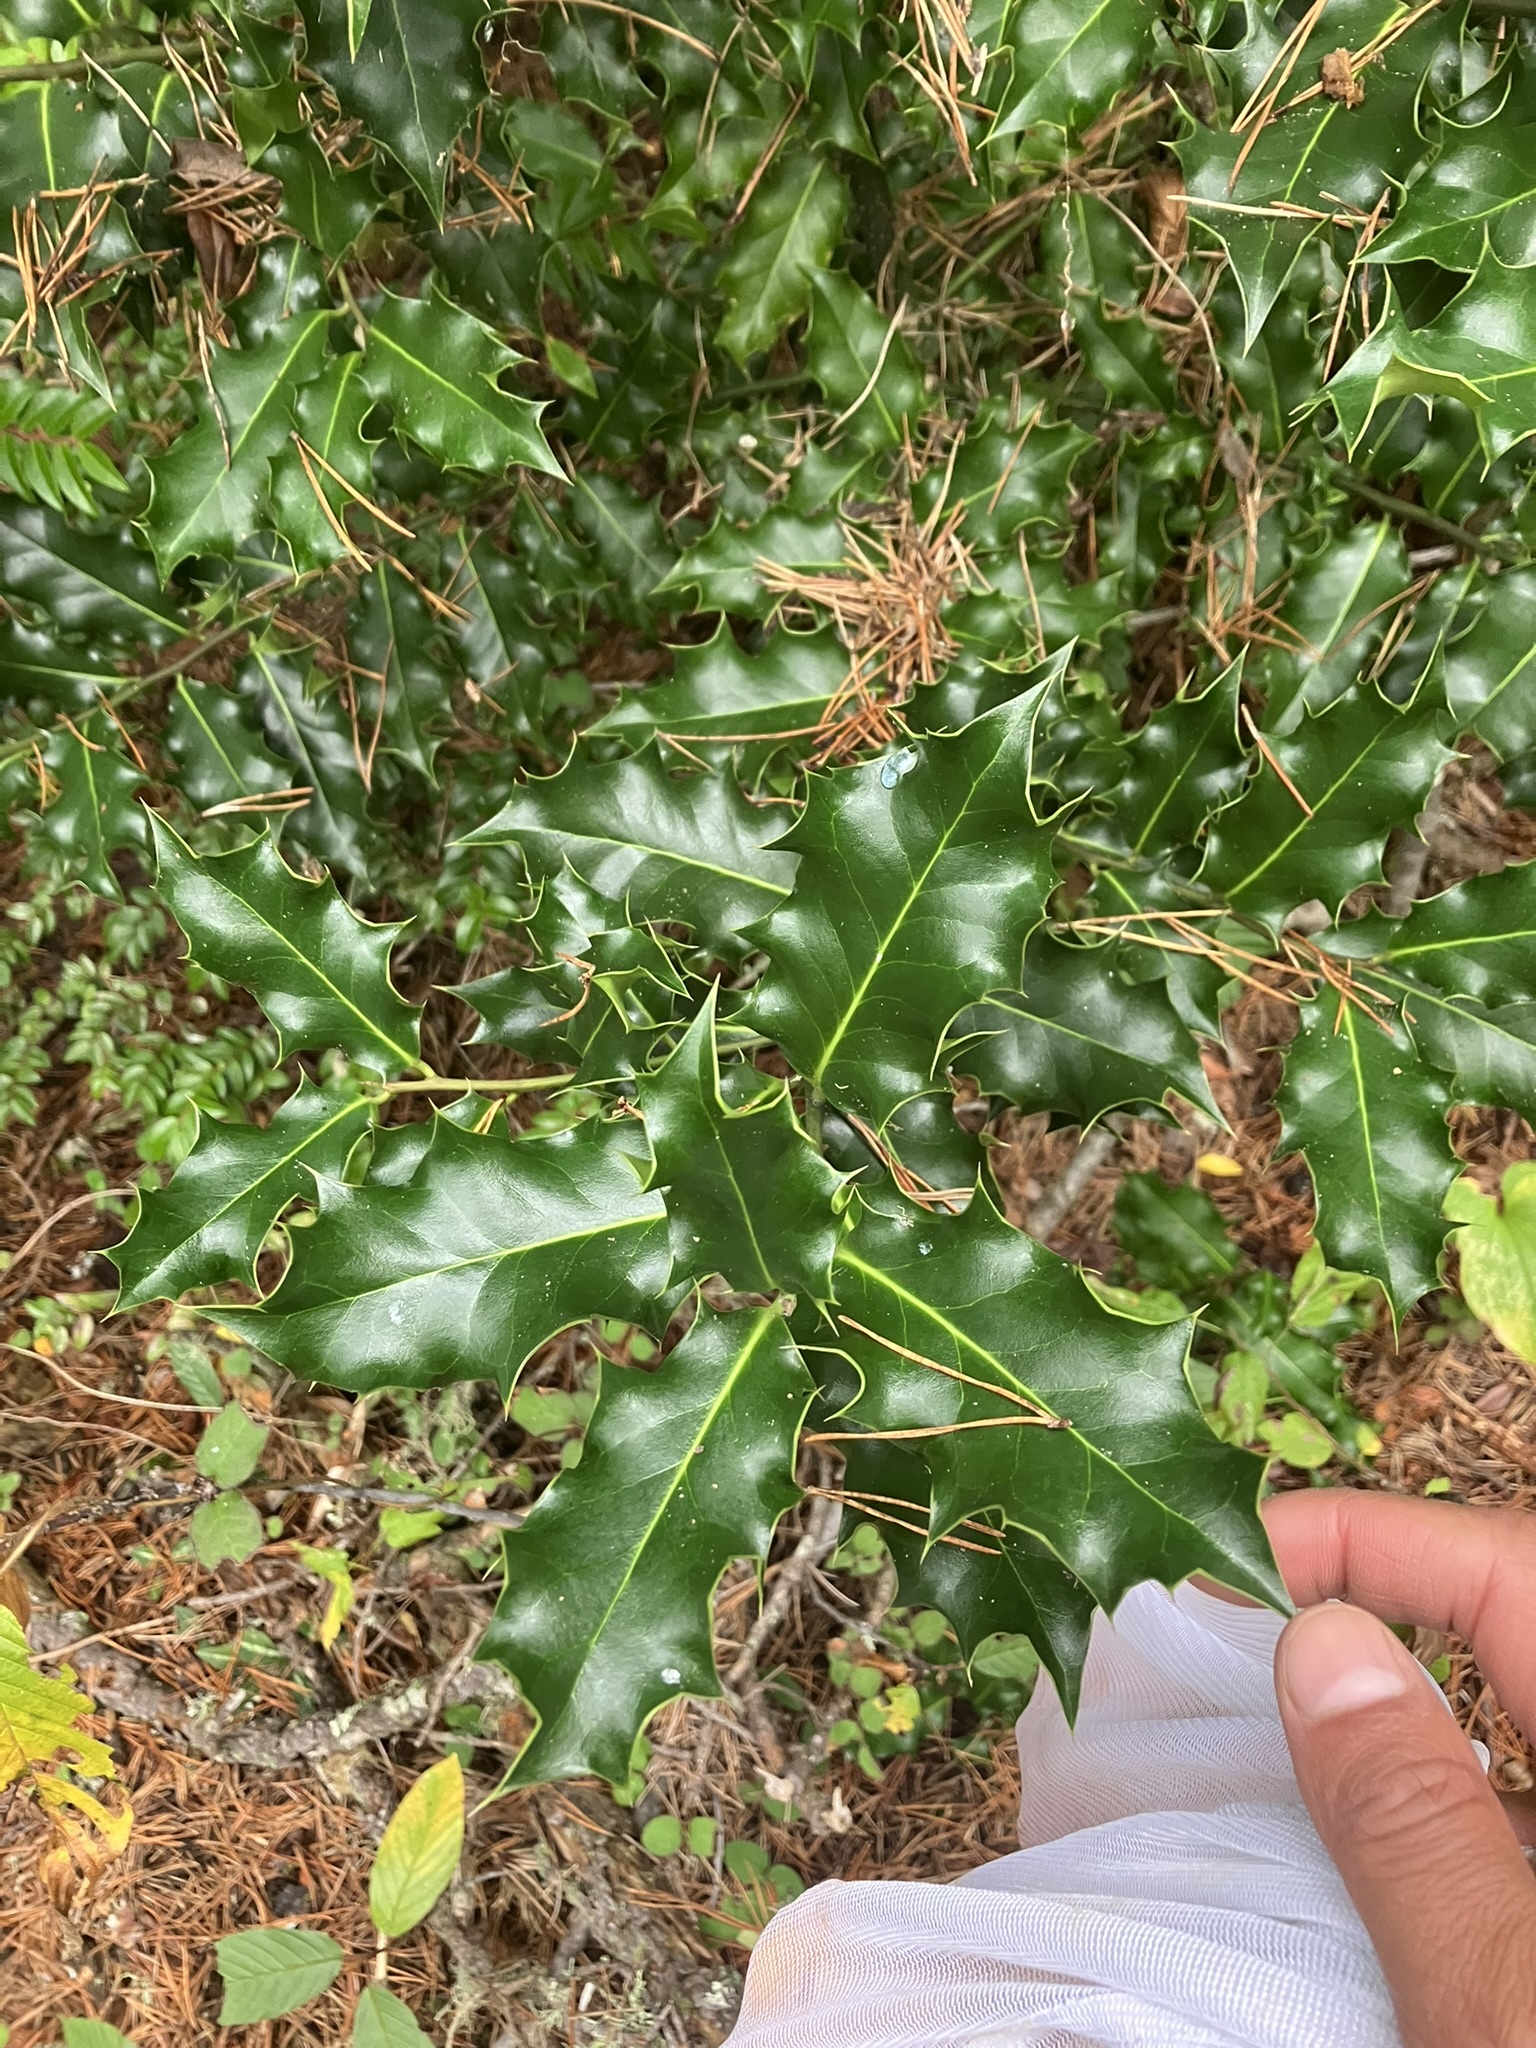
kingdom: Plantae
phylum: Tracheophyta
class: Magnoliopsida
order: Aquifoliales
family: Aquifoliaceae
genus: Ilex
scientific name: Ilex aquifolium
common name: English holly
